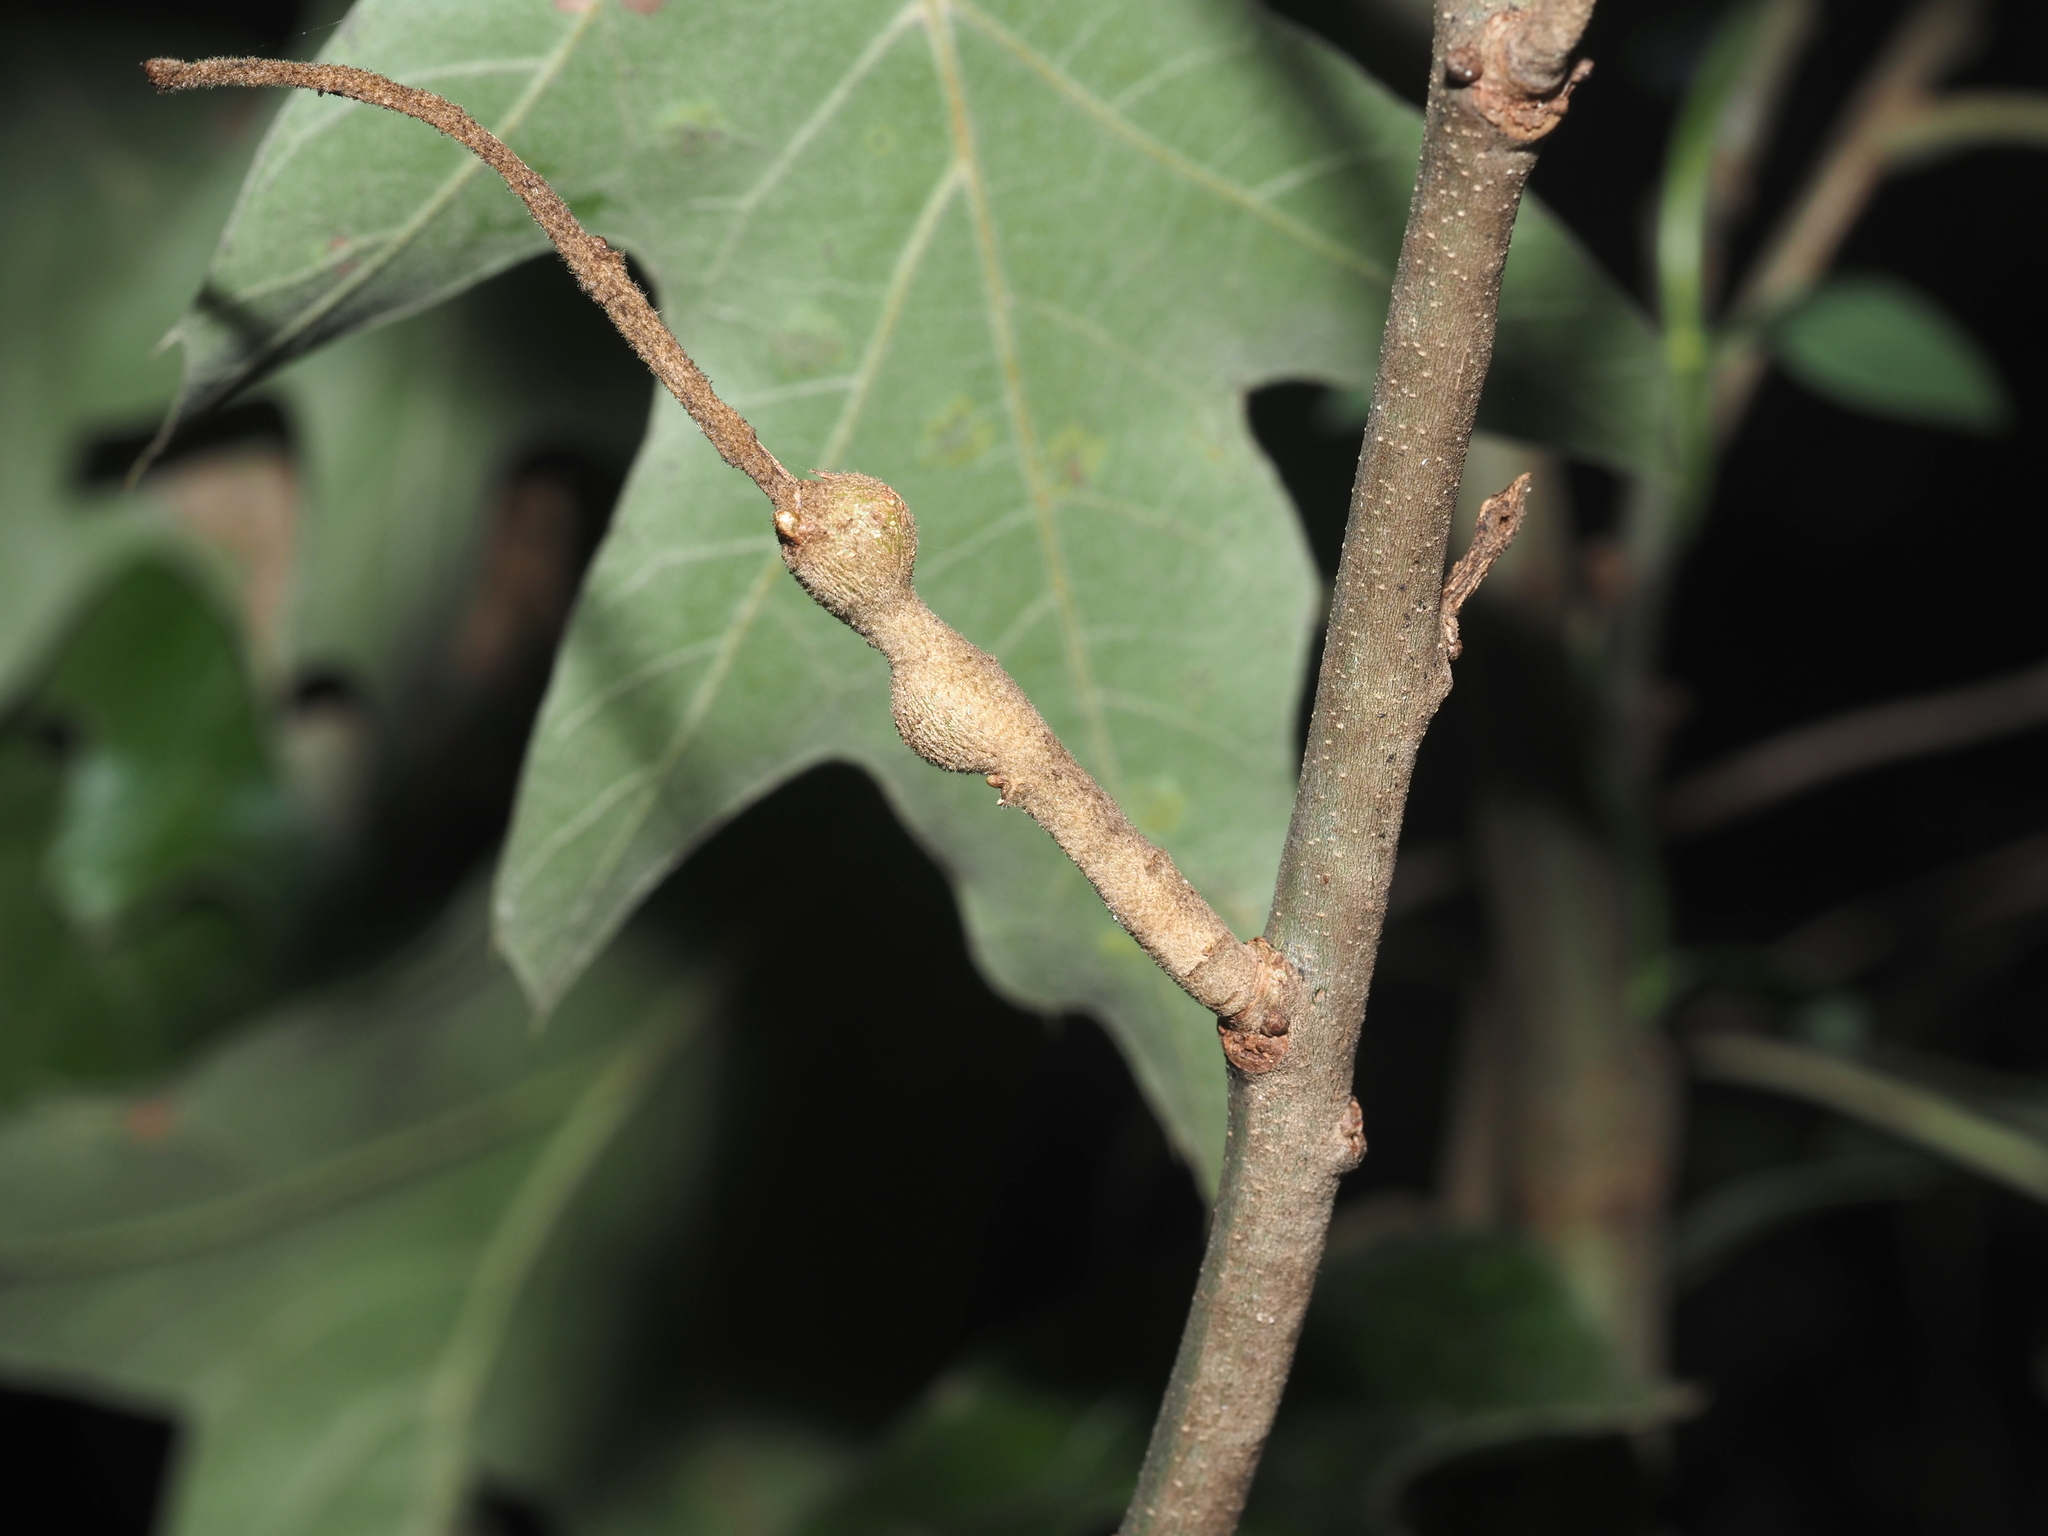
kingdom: Animalia
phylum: Arthropoda
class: Insecta
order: Hymenoptera
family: Cynipidae
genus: Zapatella
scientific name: Zapatella quercusmedullae
